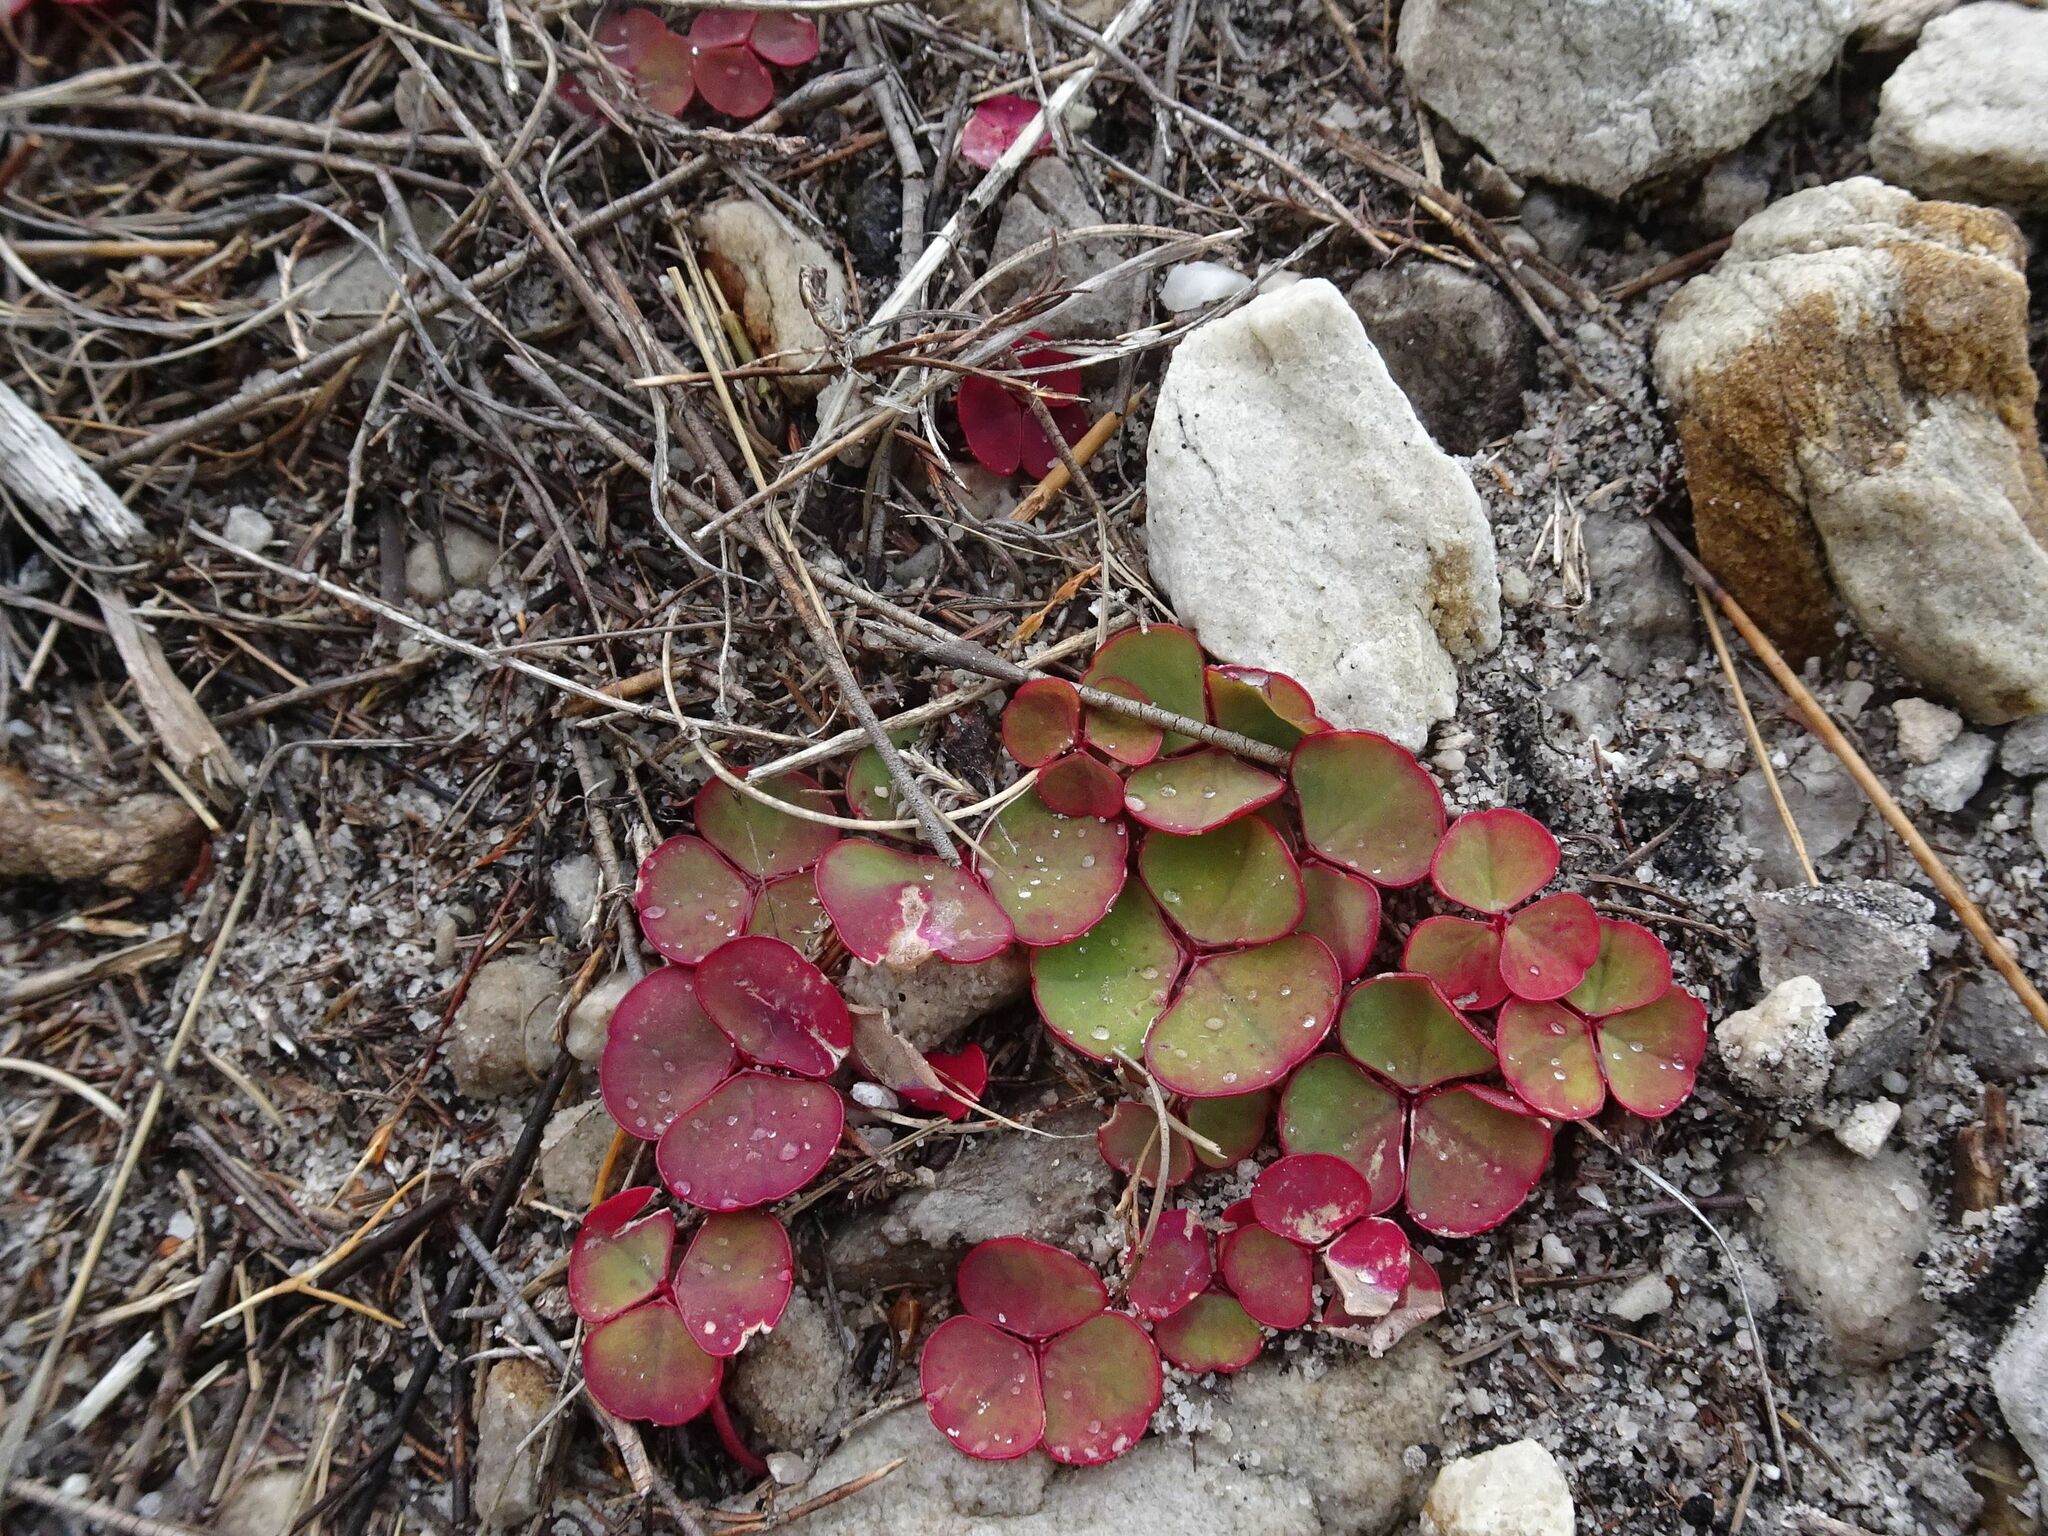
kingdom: Plantae
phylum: Tracheophyta
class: Magnoliopsida
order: Oxalidales
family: Oxalidaceae
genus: Oxalis
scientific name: Oxalis commutata
